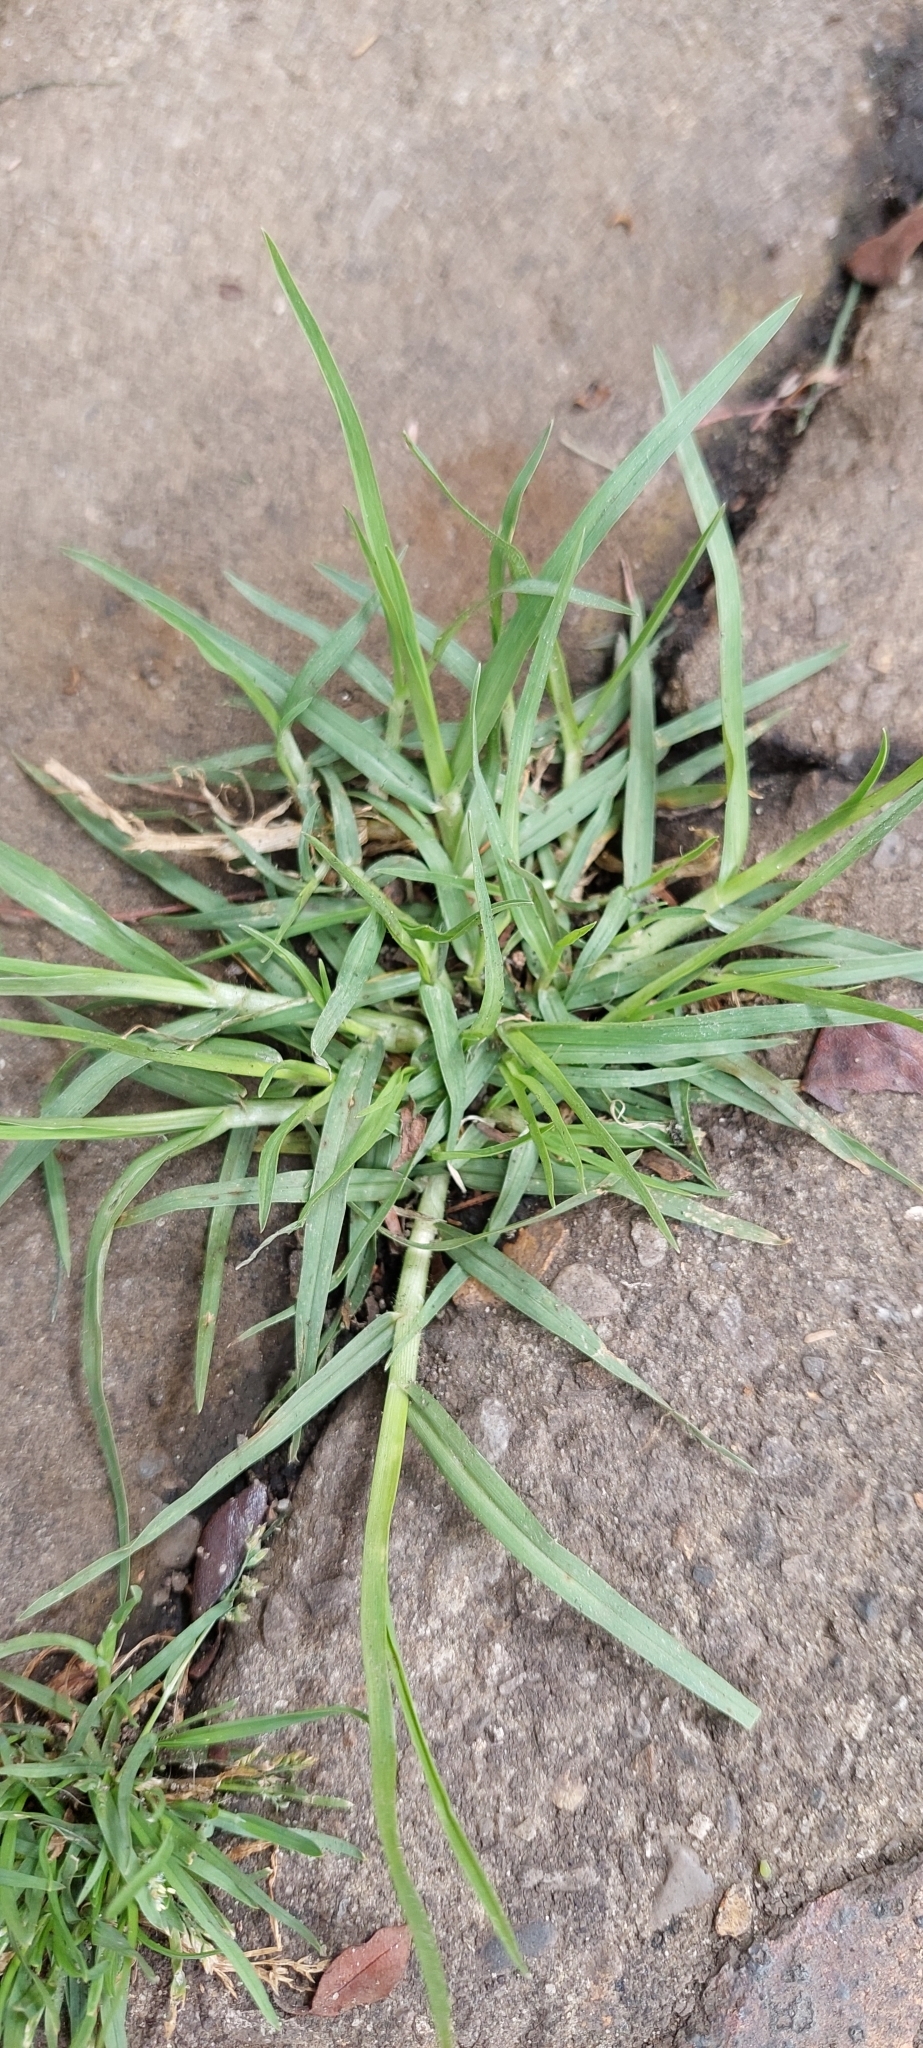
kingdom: Plantae
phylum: Tracheophyta
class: Liliopsida
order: Poales
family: Poaceae
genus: Cenchrus
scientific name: Cenchrus clandestinus
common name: Kikuyugrass
